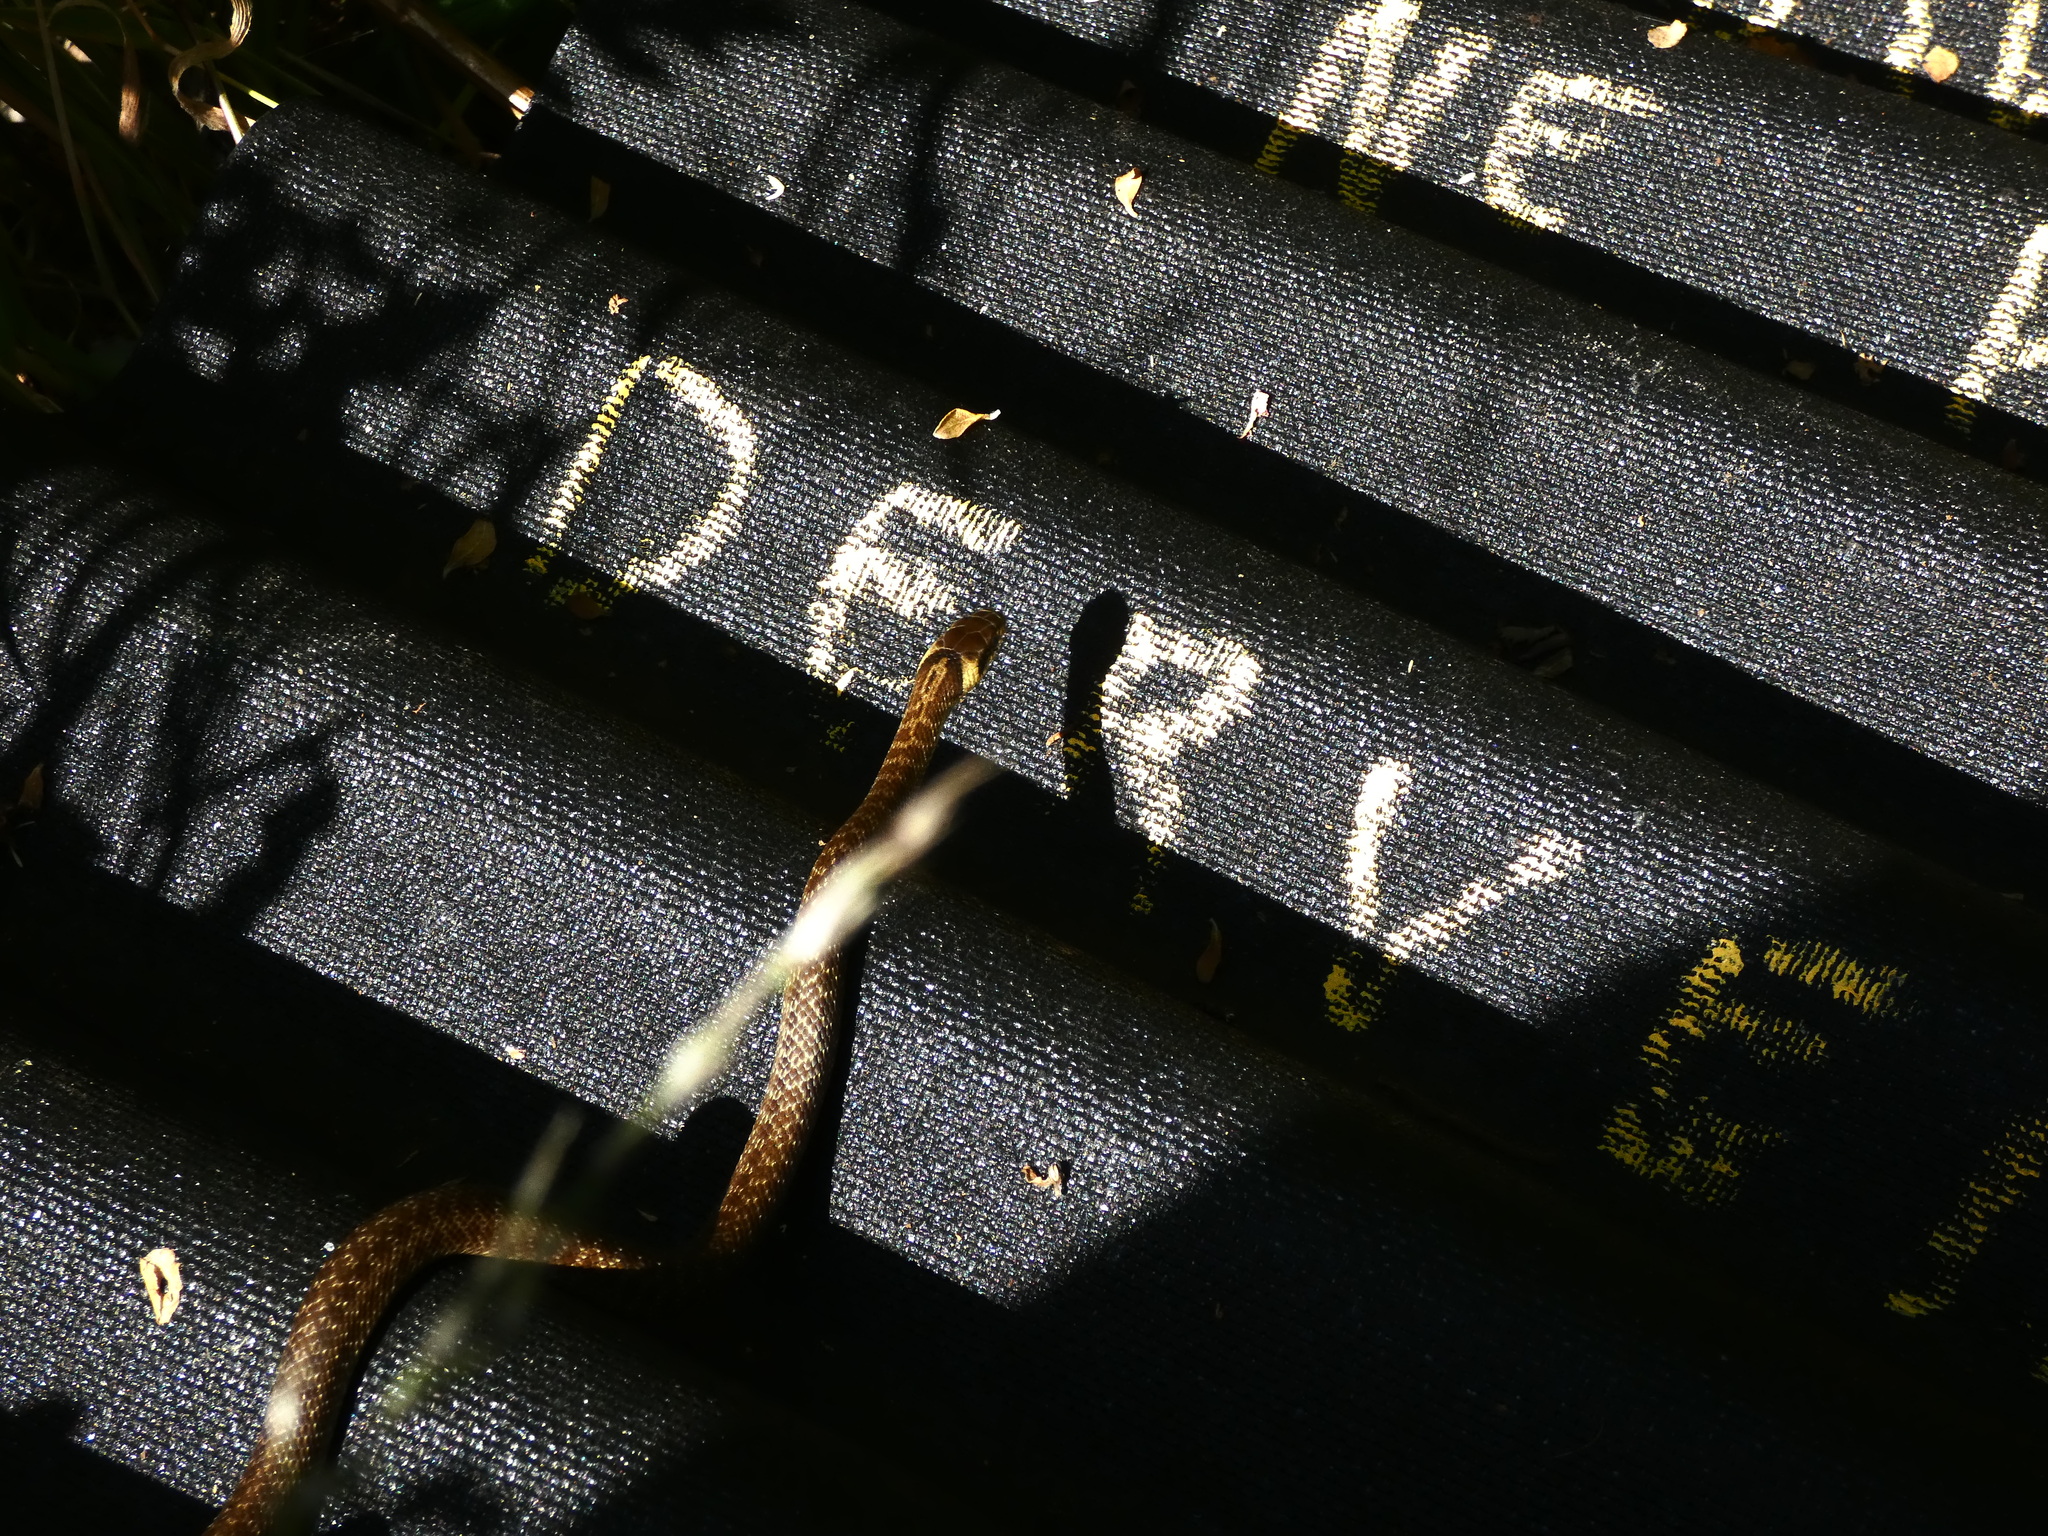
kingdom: Animalia
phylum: Chordata
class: Squamata
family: Colubridae
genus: Zamenis
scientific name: Zamenis longissimus
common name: Aesculapean snake
